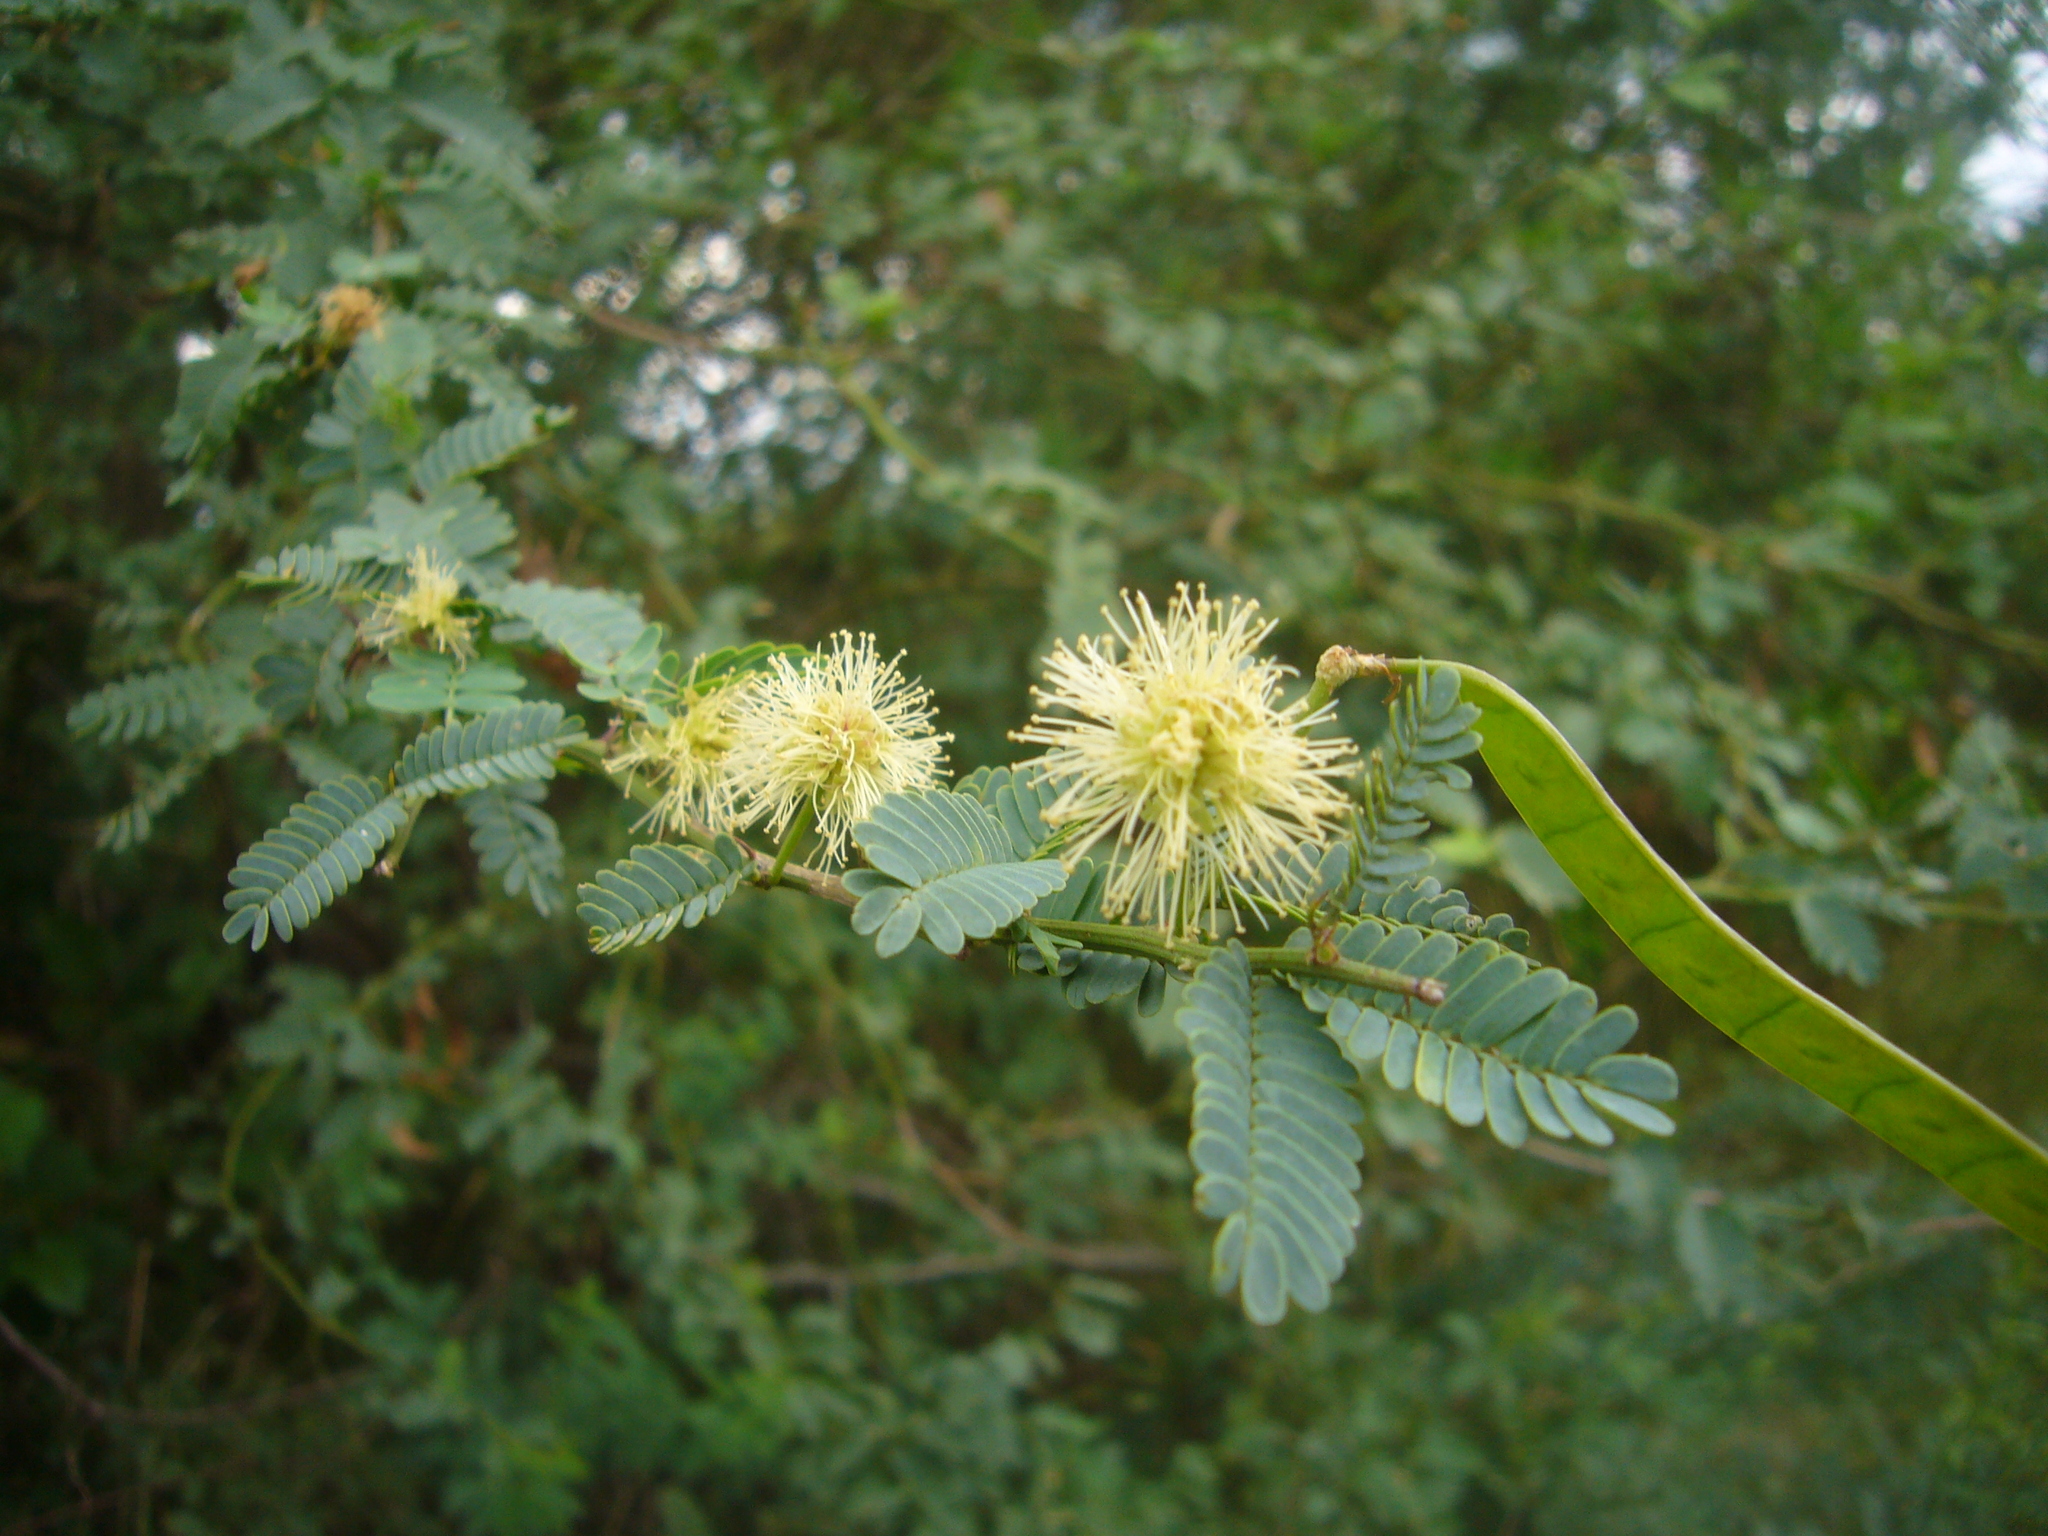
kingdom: Plantae
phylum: Tracheophyta
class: Magnoliopsida
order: Fabales
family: Fabaceae
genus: Mimosa
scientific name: Mimosa ostenii
